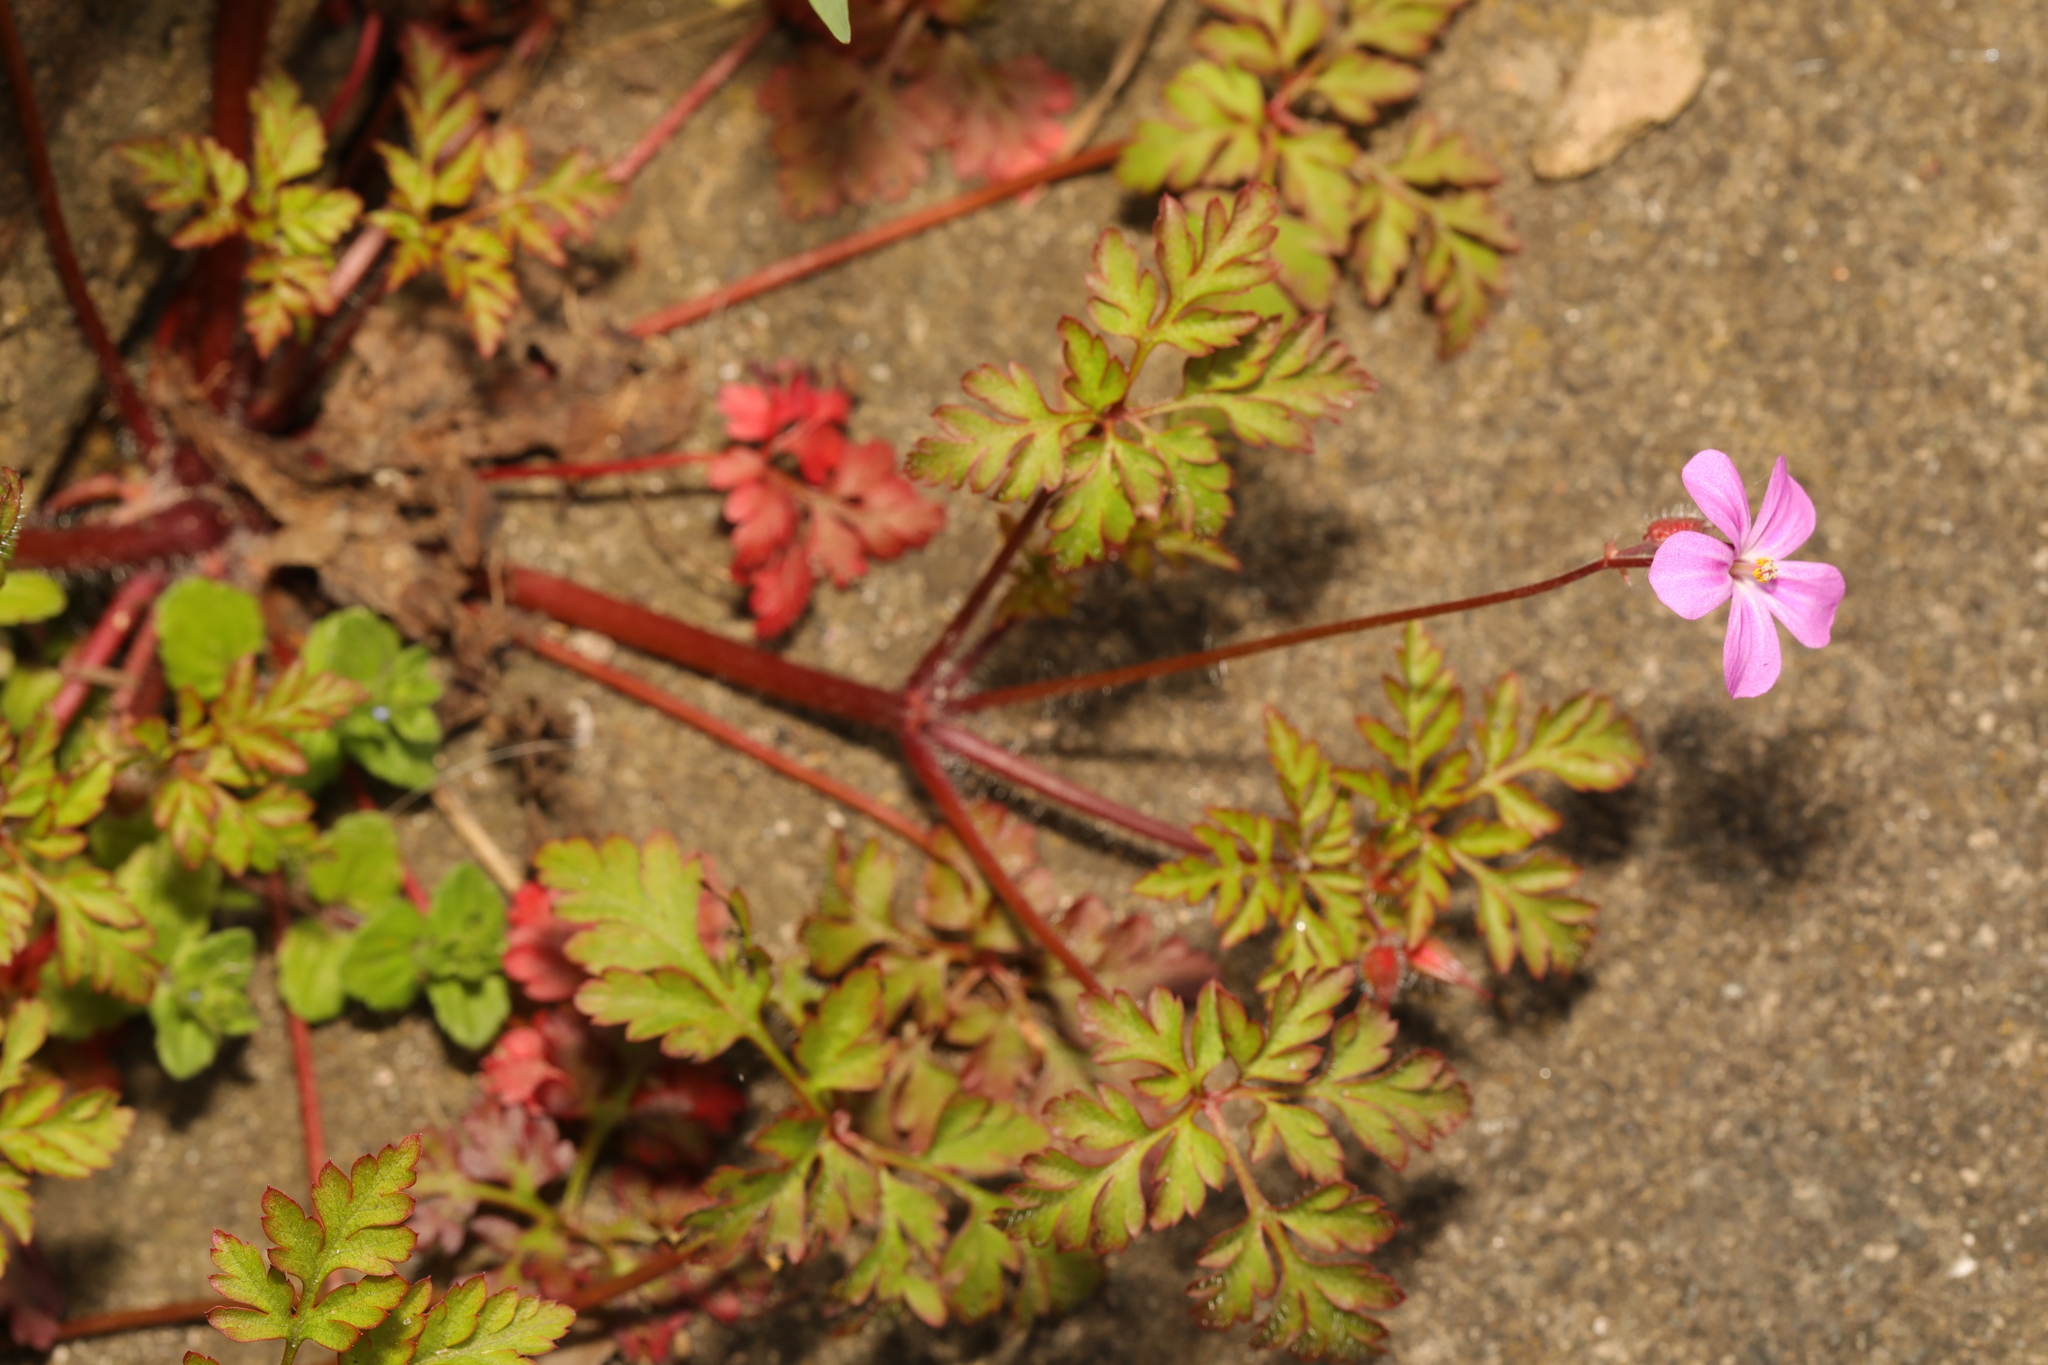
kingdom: Plantae
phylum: Tracheophyta
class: Magnoliopsida
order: Geraniales
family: Geraniaceae
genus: Geranium
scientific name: Geranium robertianum
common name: Herb-robert
